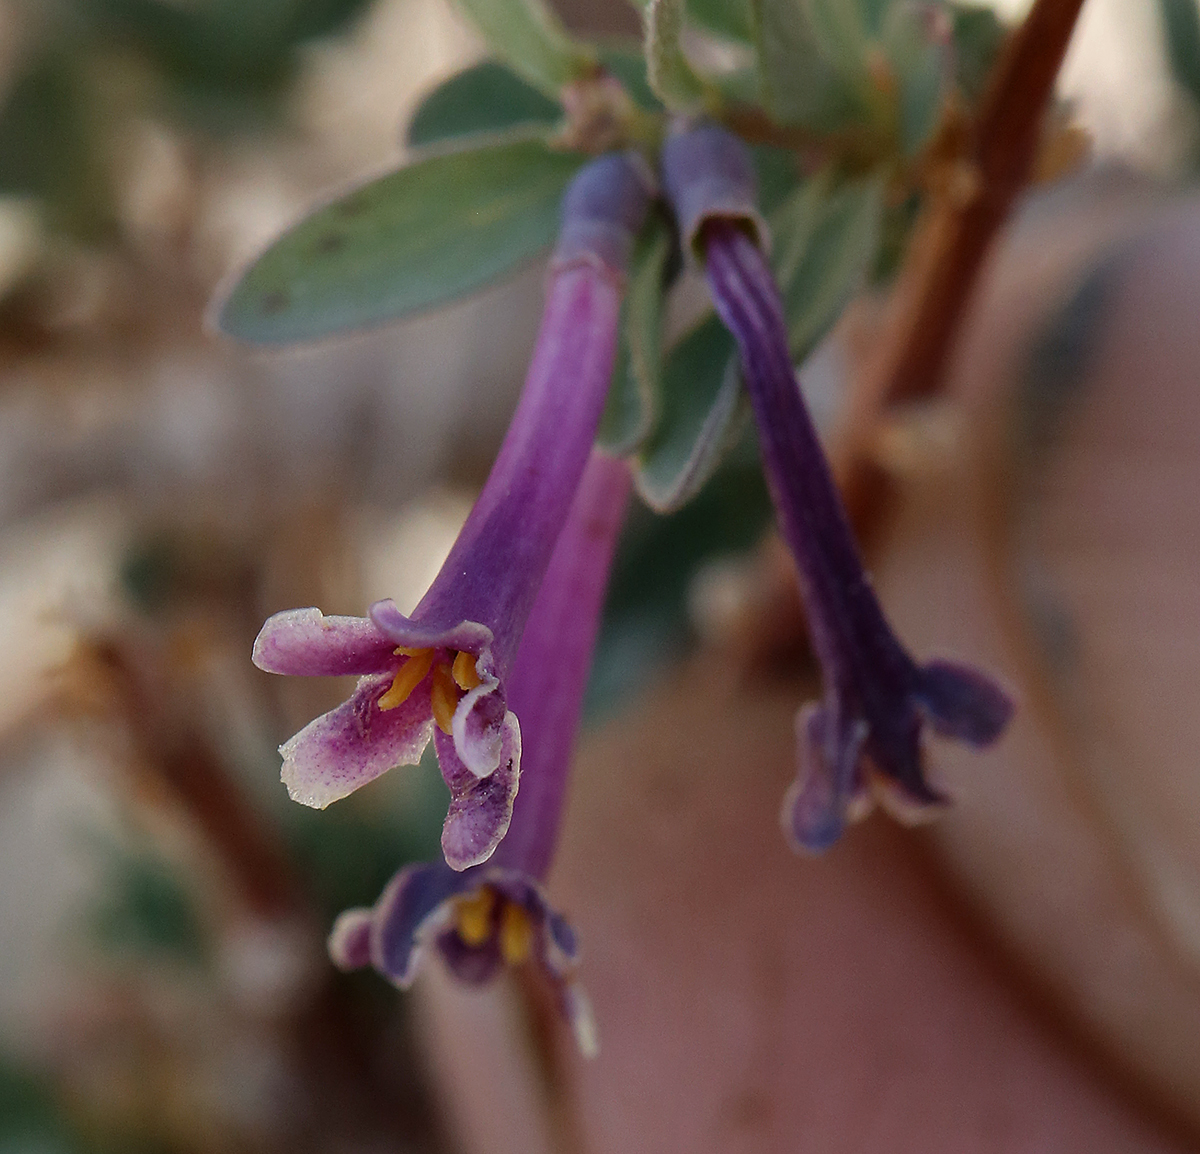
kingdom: Plantae
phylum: Tracheophyta
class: Magnoliopsida
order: Dipsacales
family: Caprifoliaceae
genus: Symphoricarpos
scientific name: Symphoricarpos longiflorus
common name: Fragrant snowberry
